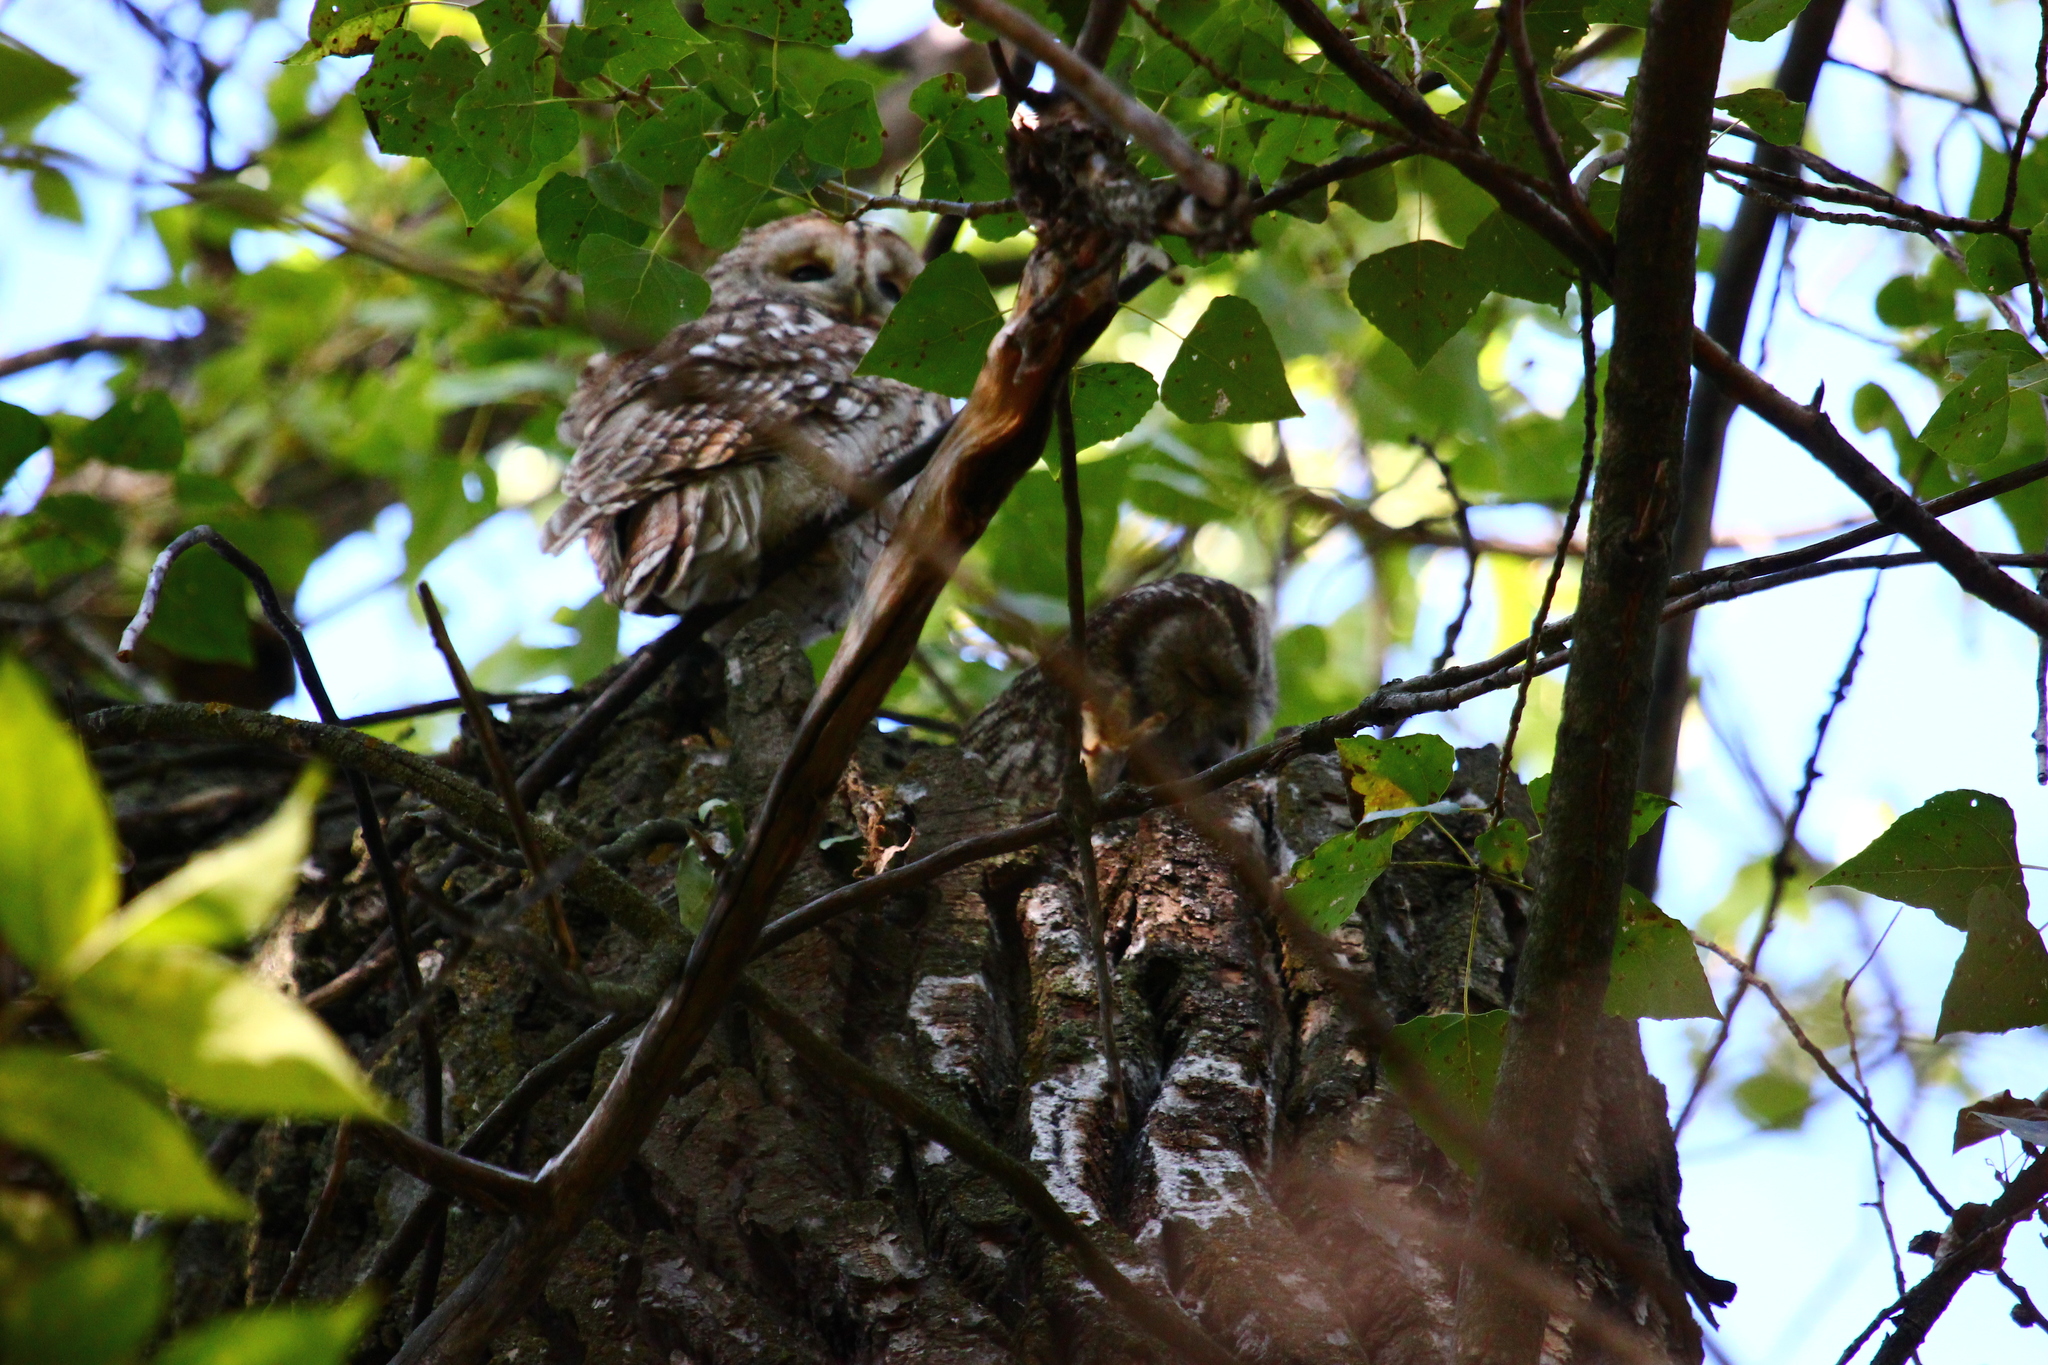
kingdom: Animalia
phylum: Chordata
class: Aves
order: Strigiformes
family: Strigidae
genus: Strix
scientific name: Strix aluco
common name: Tawny owl
